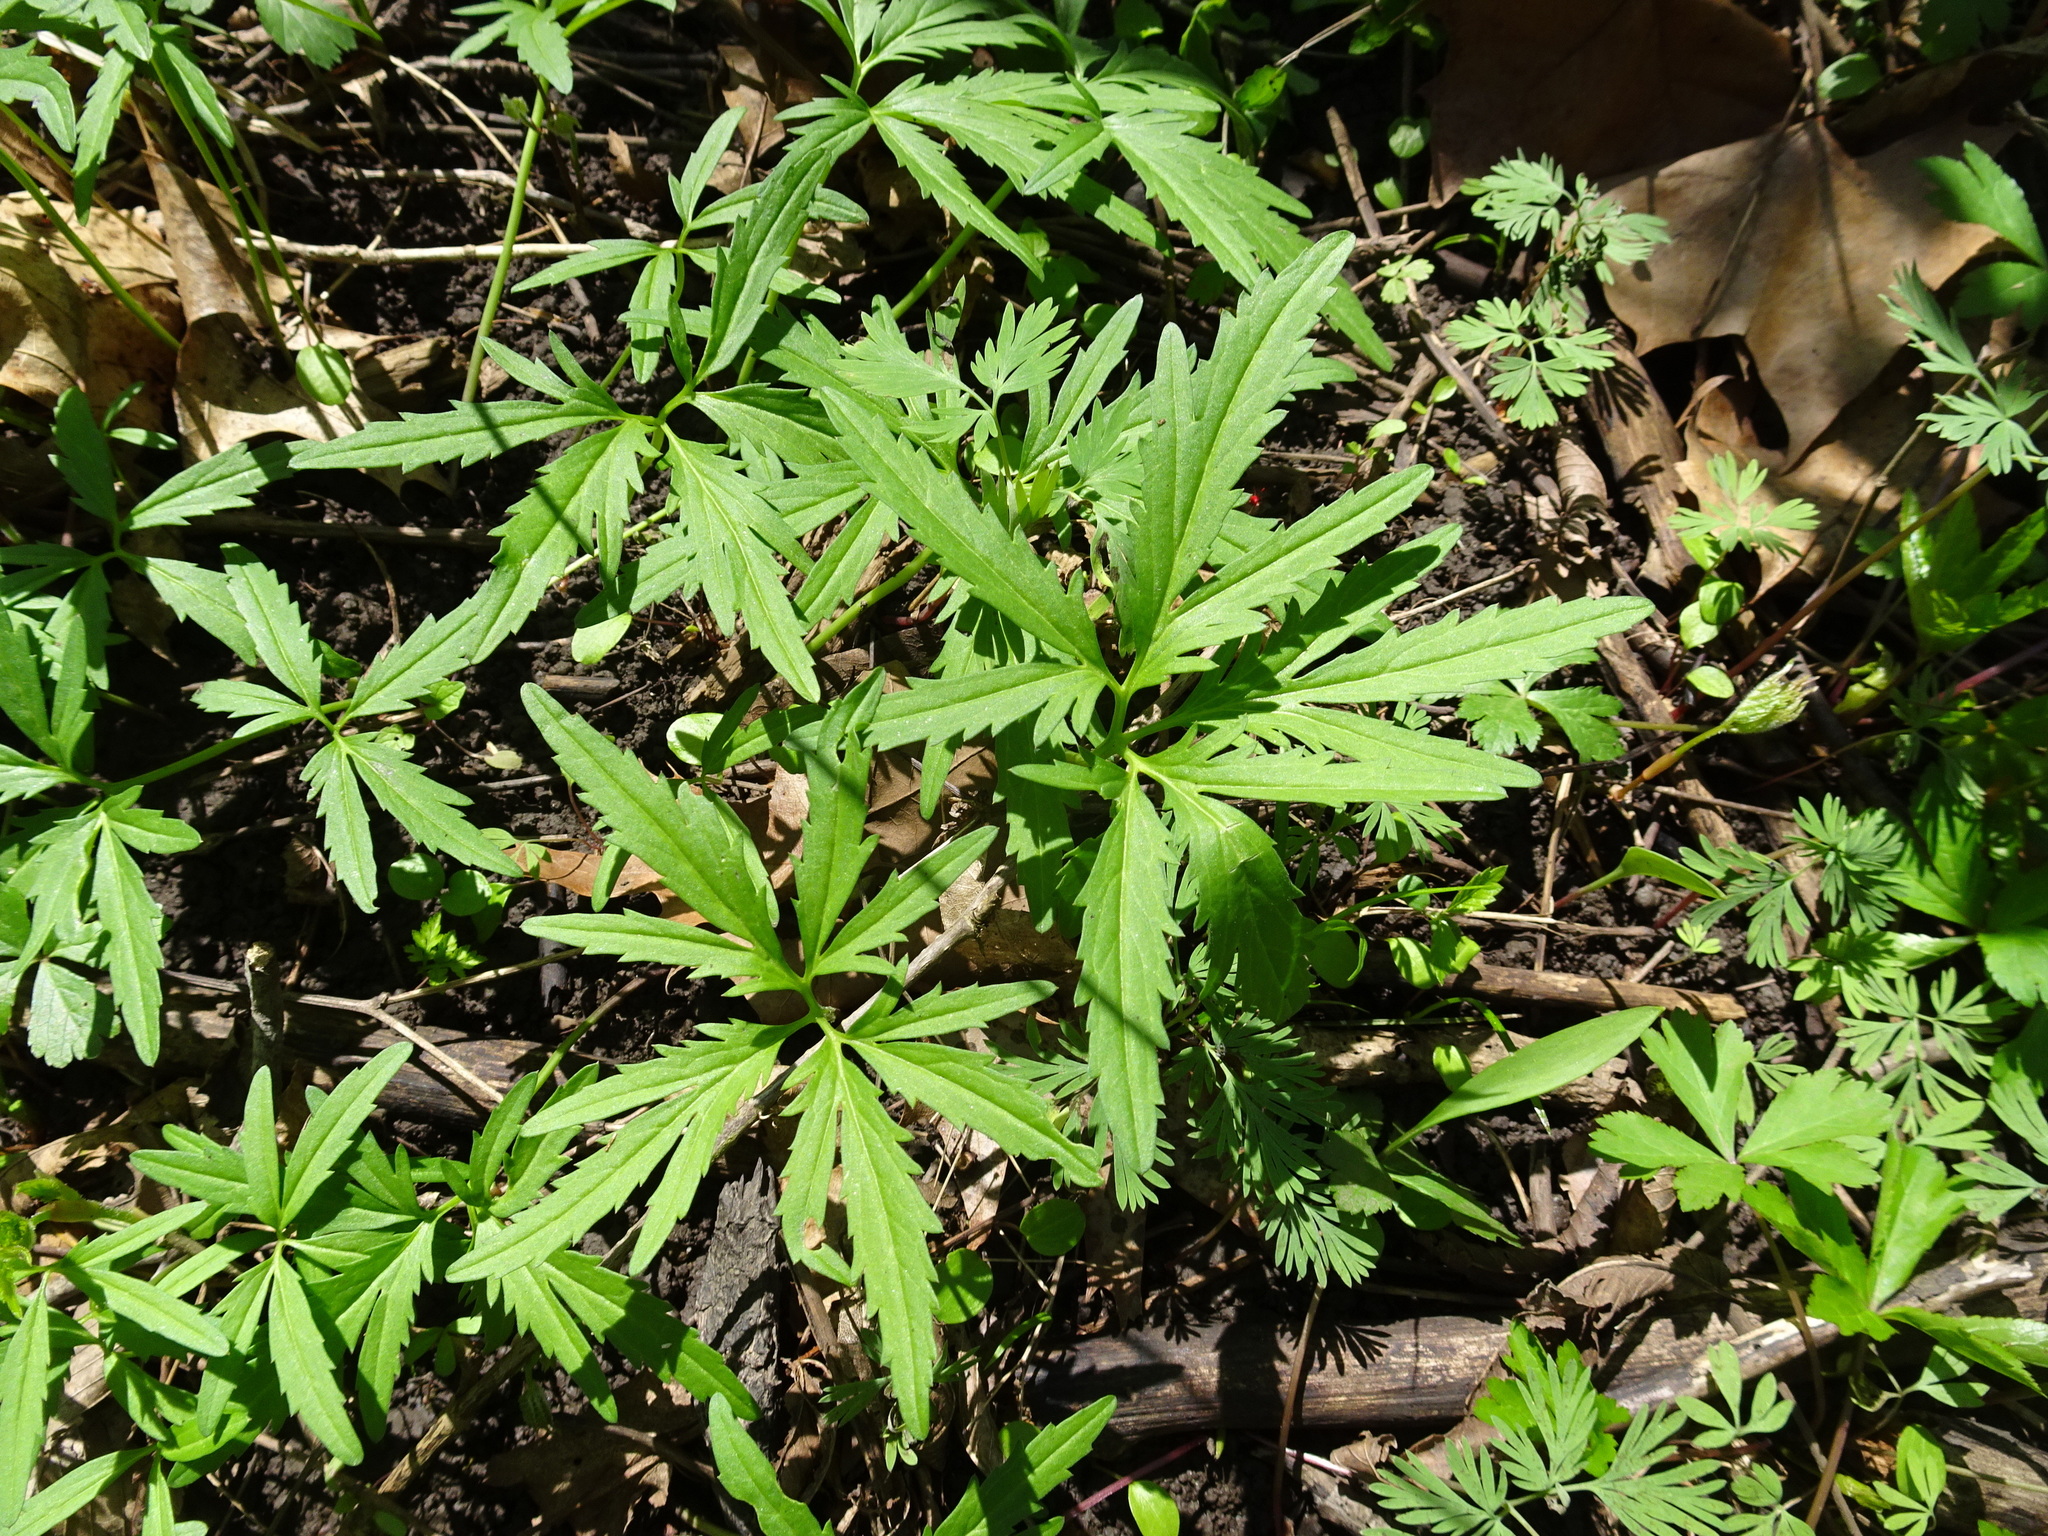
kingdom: Plantae
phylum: Tracheophyta
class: Magnoliopsida
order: Brassicales
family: Brassicaceae
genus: Cardamine
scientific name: Cardamine concatenata
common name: Cut-leaf toothcup
